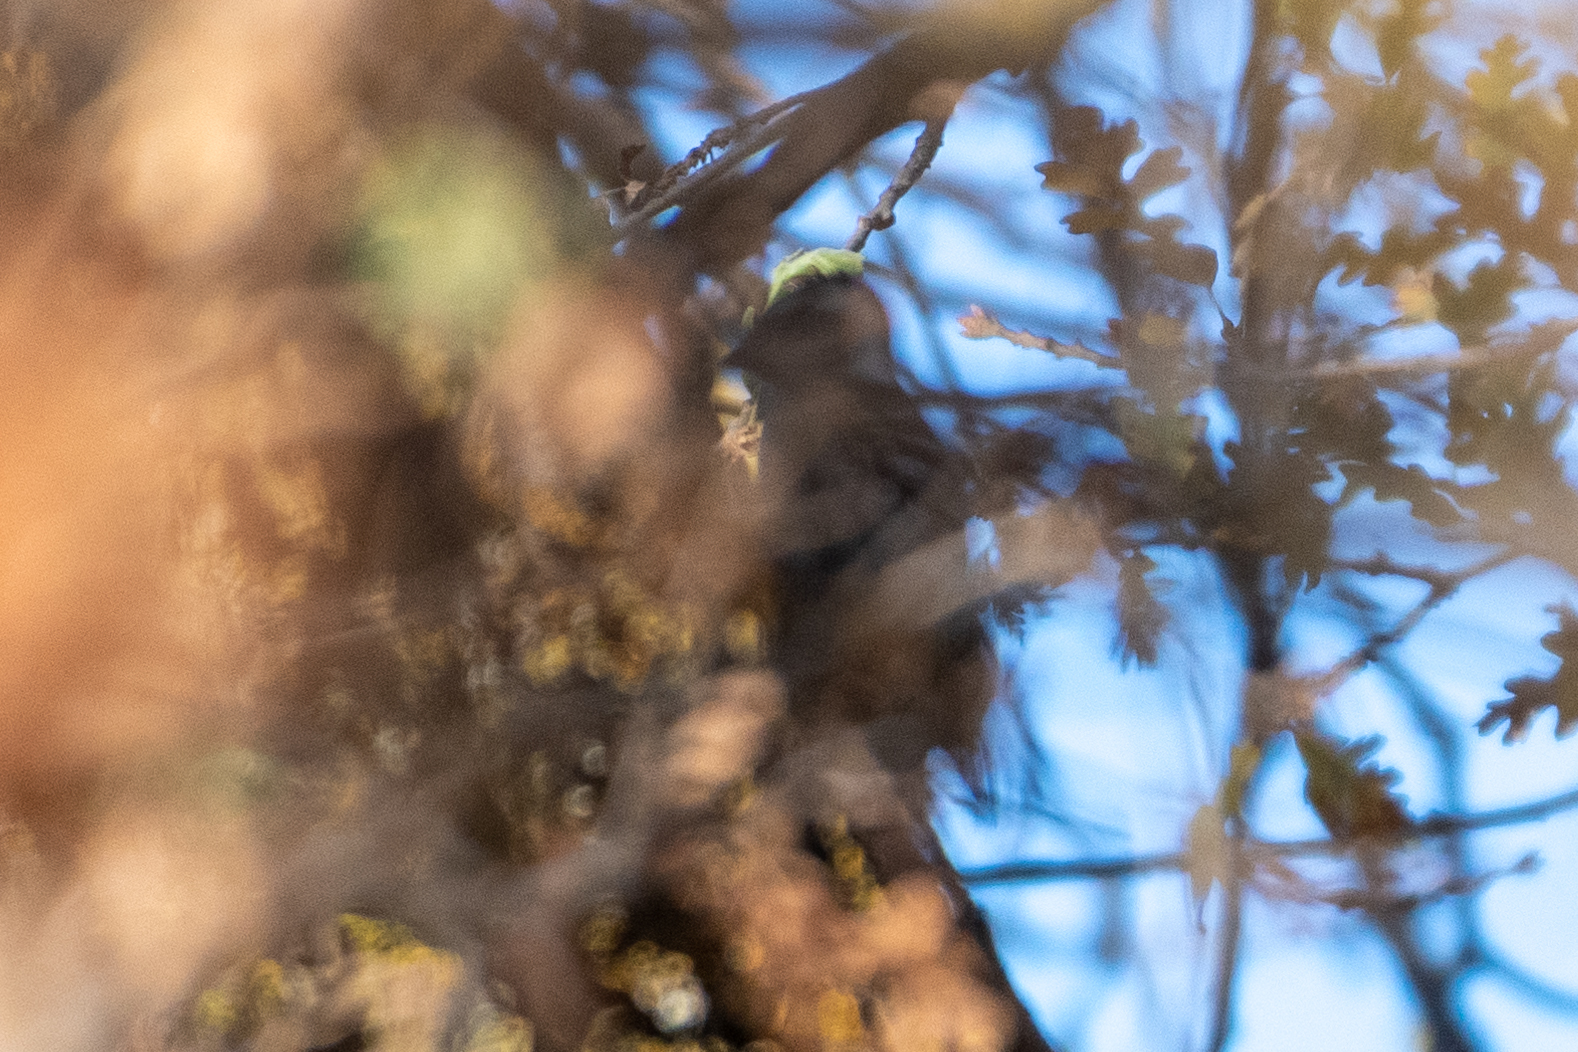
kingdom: Animalia
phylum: Chordata
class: Aves
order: Piciformes
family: Picidae
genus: Dryobates
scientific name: Dryobates nuttallii
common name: Nuttall's woodpecker
